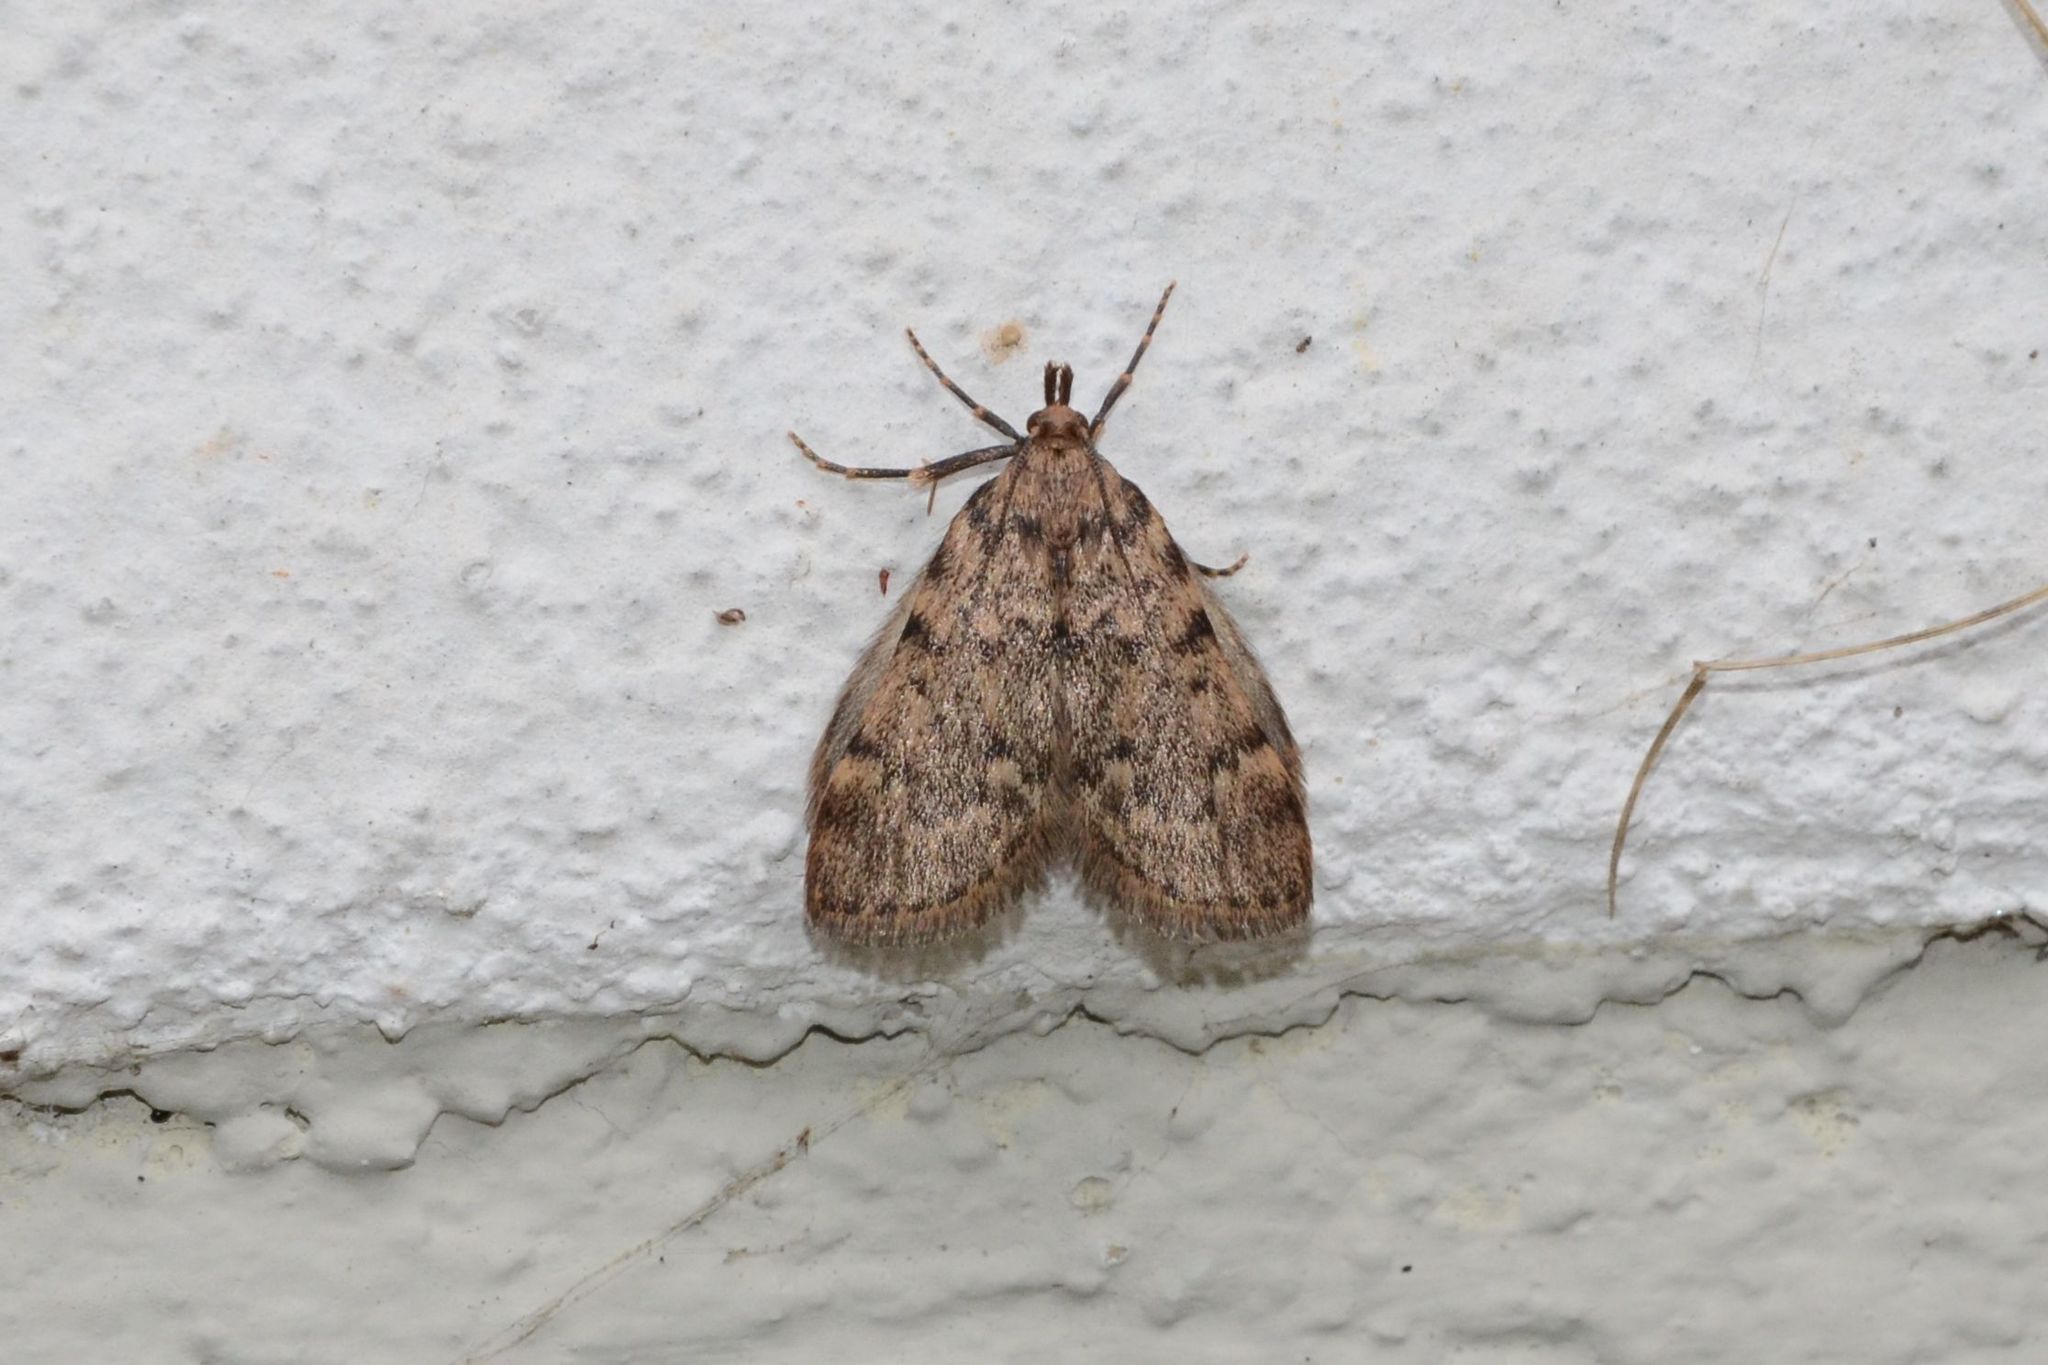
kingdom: Animalia
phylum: Arthropoda
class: Insecta
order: Lepidoptera
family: Pyralidae
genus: Aglossa
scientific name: Aglossa pinguinalis
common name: Large tabby
